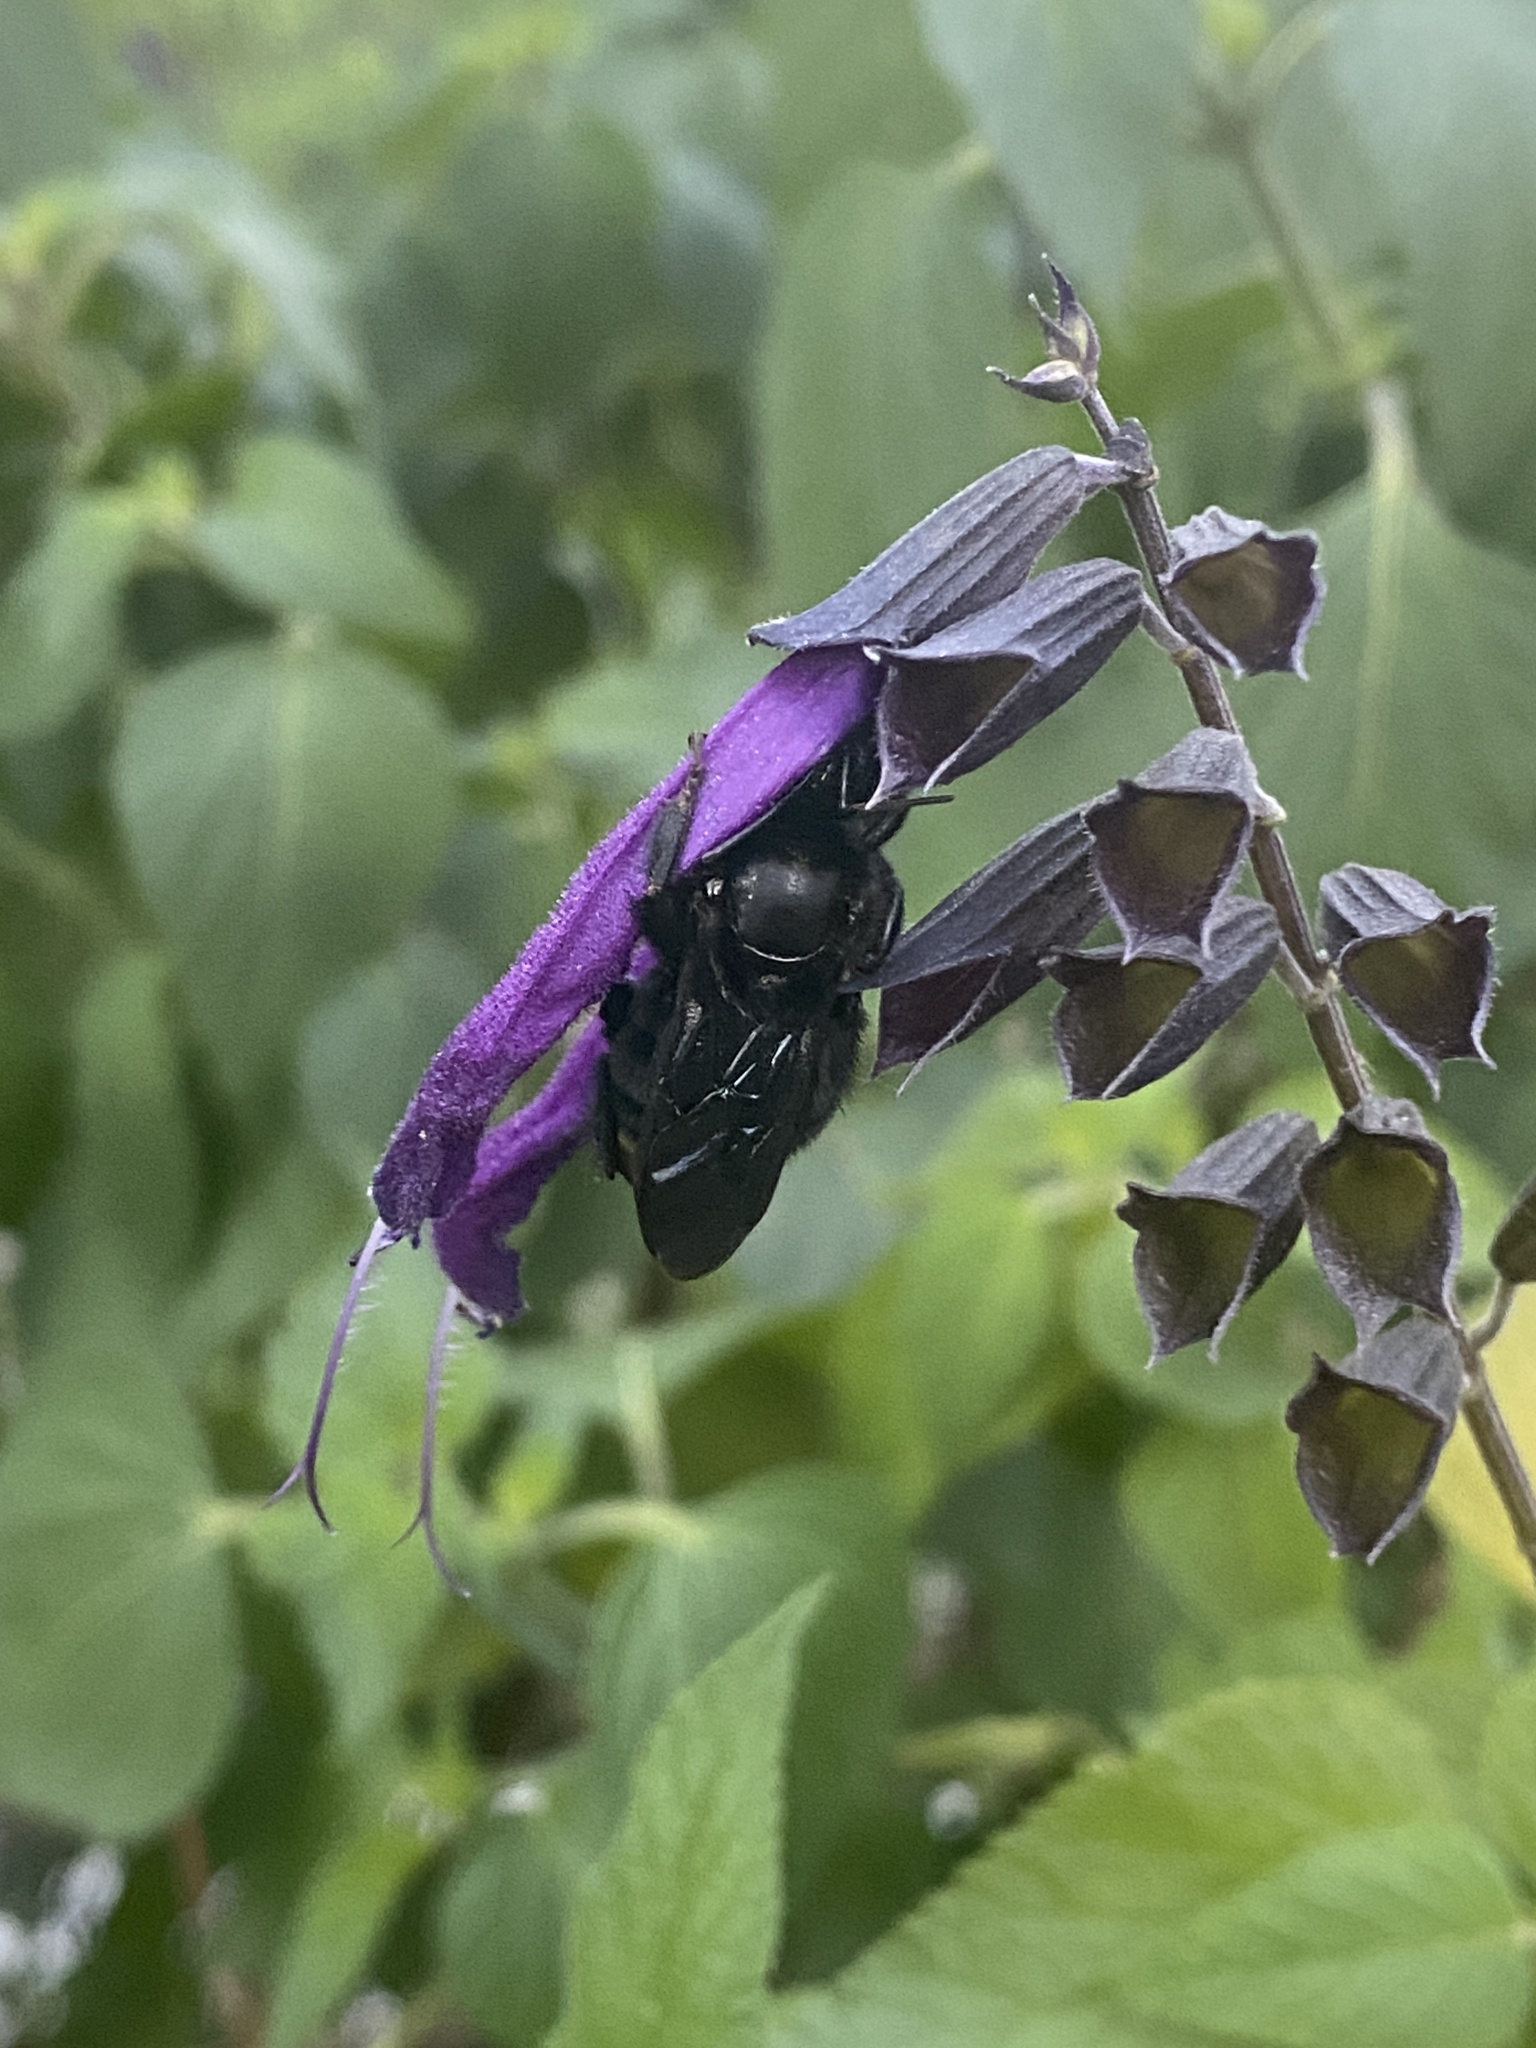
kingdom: Animalia
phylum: Arthropoda
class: Insecta
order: Hymenoptera
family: Apidae
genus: Bombus
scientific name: Bombus pauloensis
